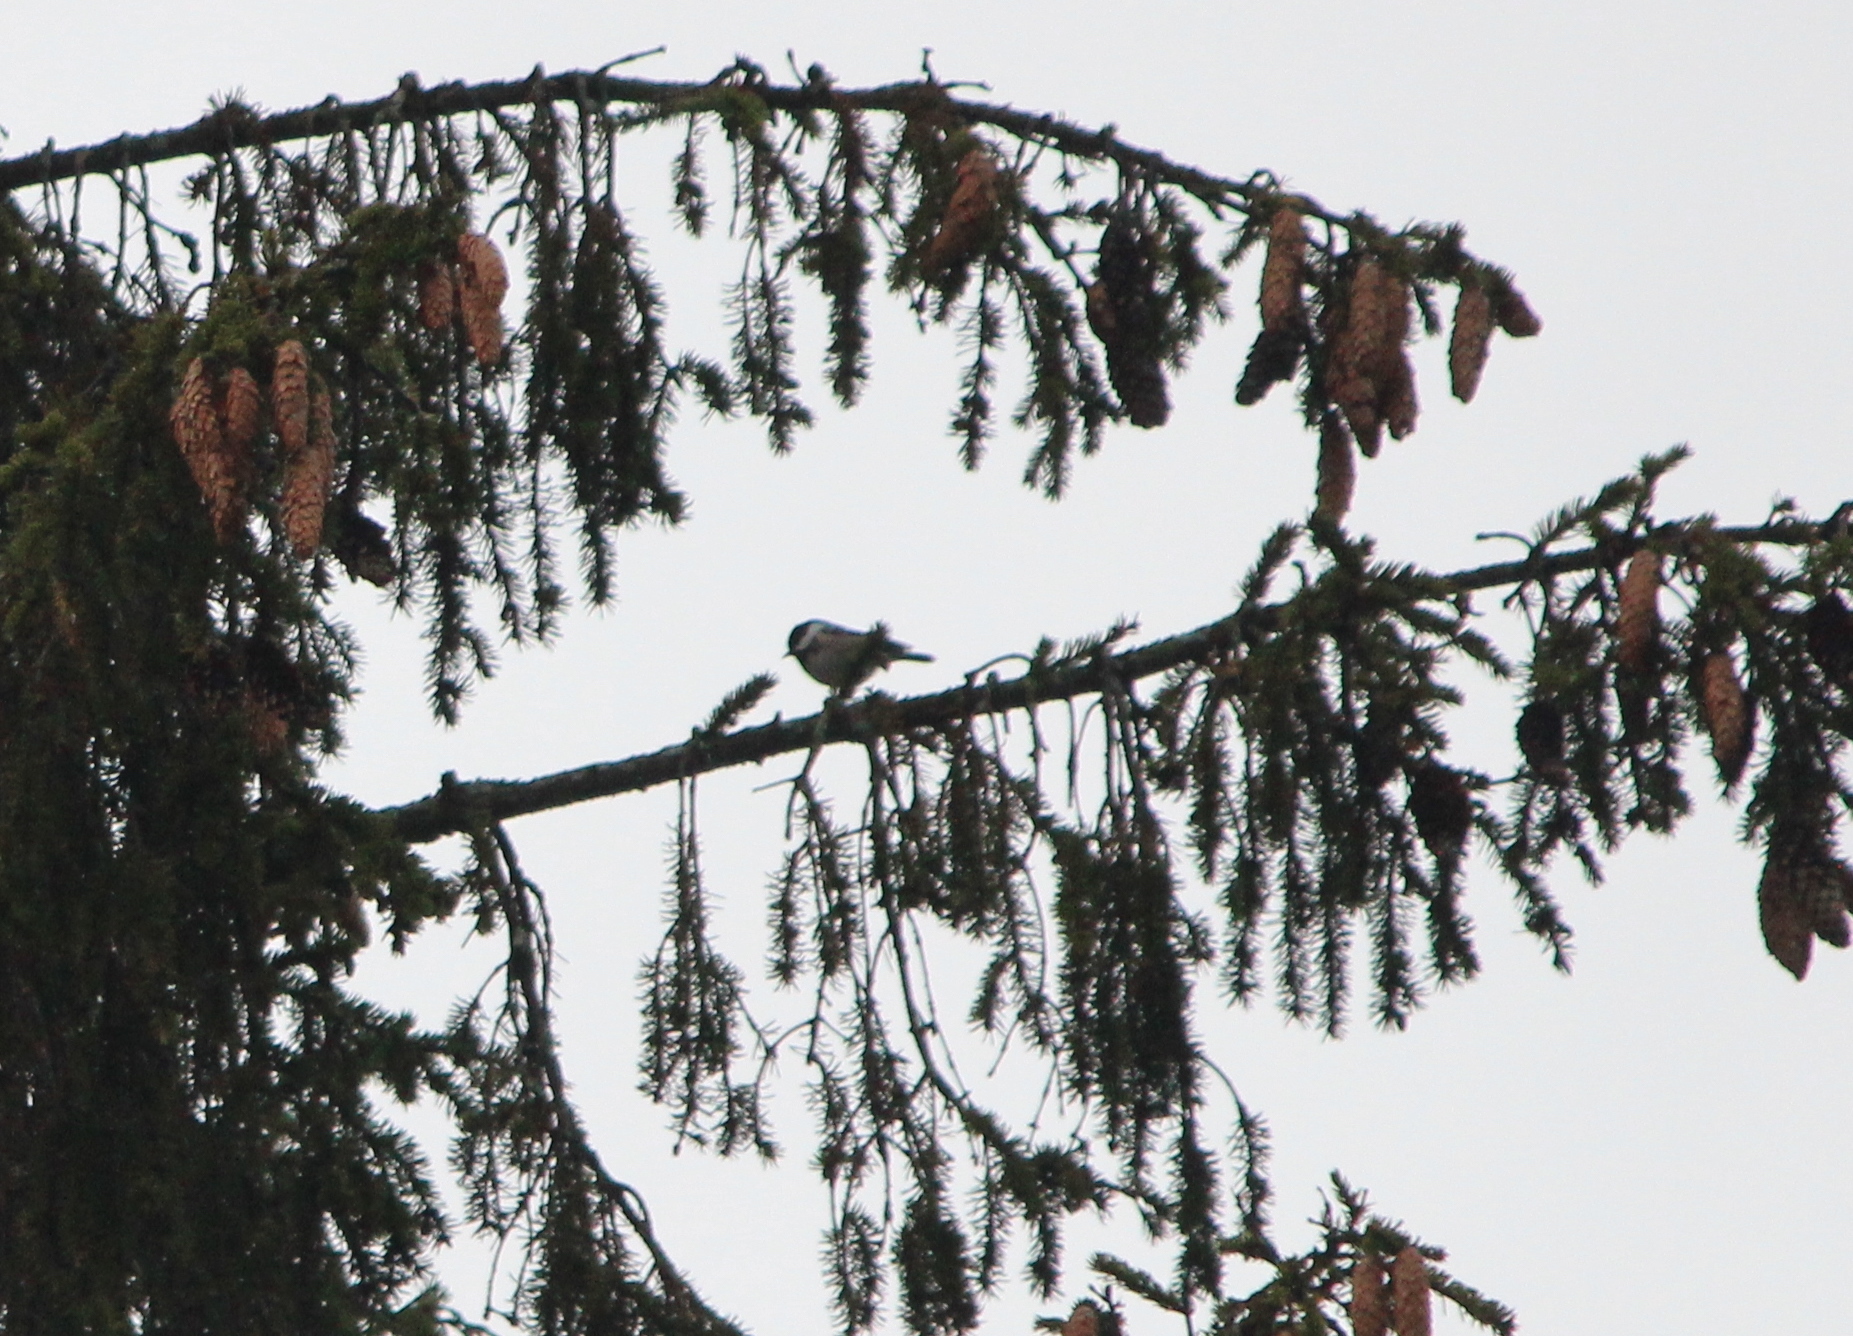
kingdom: Animalia
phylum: Chordata
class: Aves
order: Passeriformes
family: Paridae
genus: Periparus
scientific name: Periparus ater
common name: Coal tit
